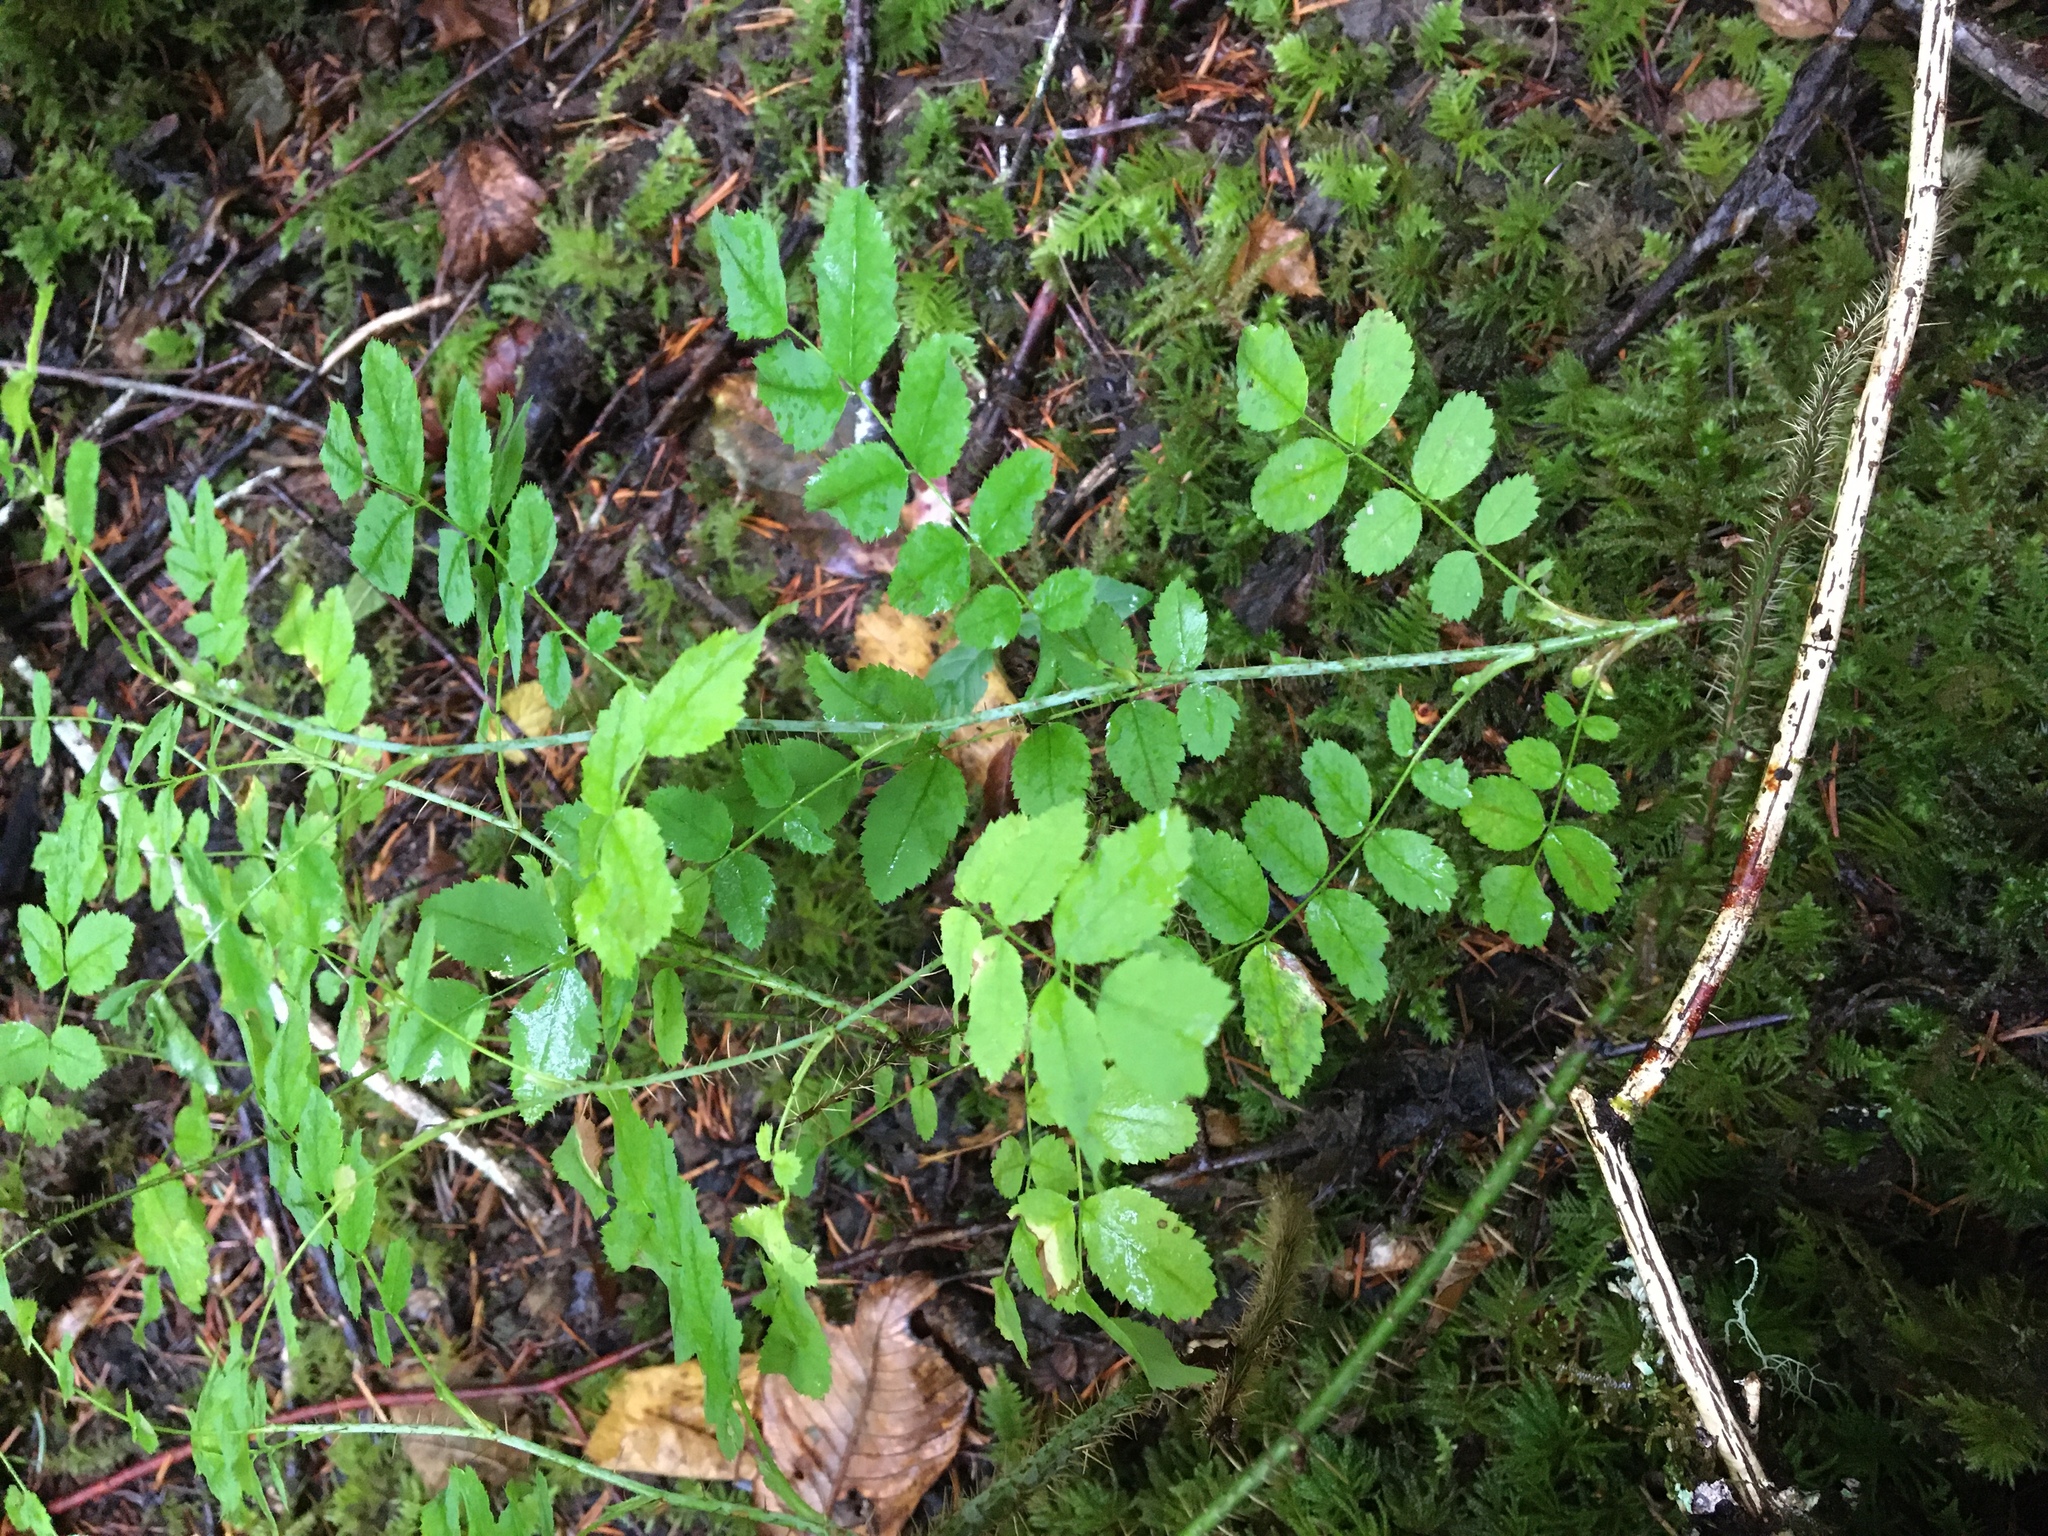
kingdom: Plantae
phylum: Tracheophyta
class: Magnoliopsida
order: Rosales
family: Rosaceae
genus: Rosa
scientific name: Rosa gymnocarpa
